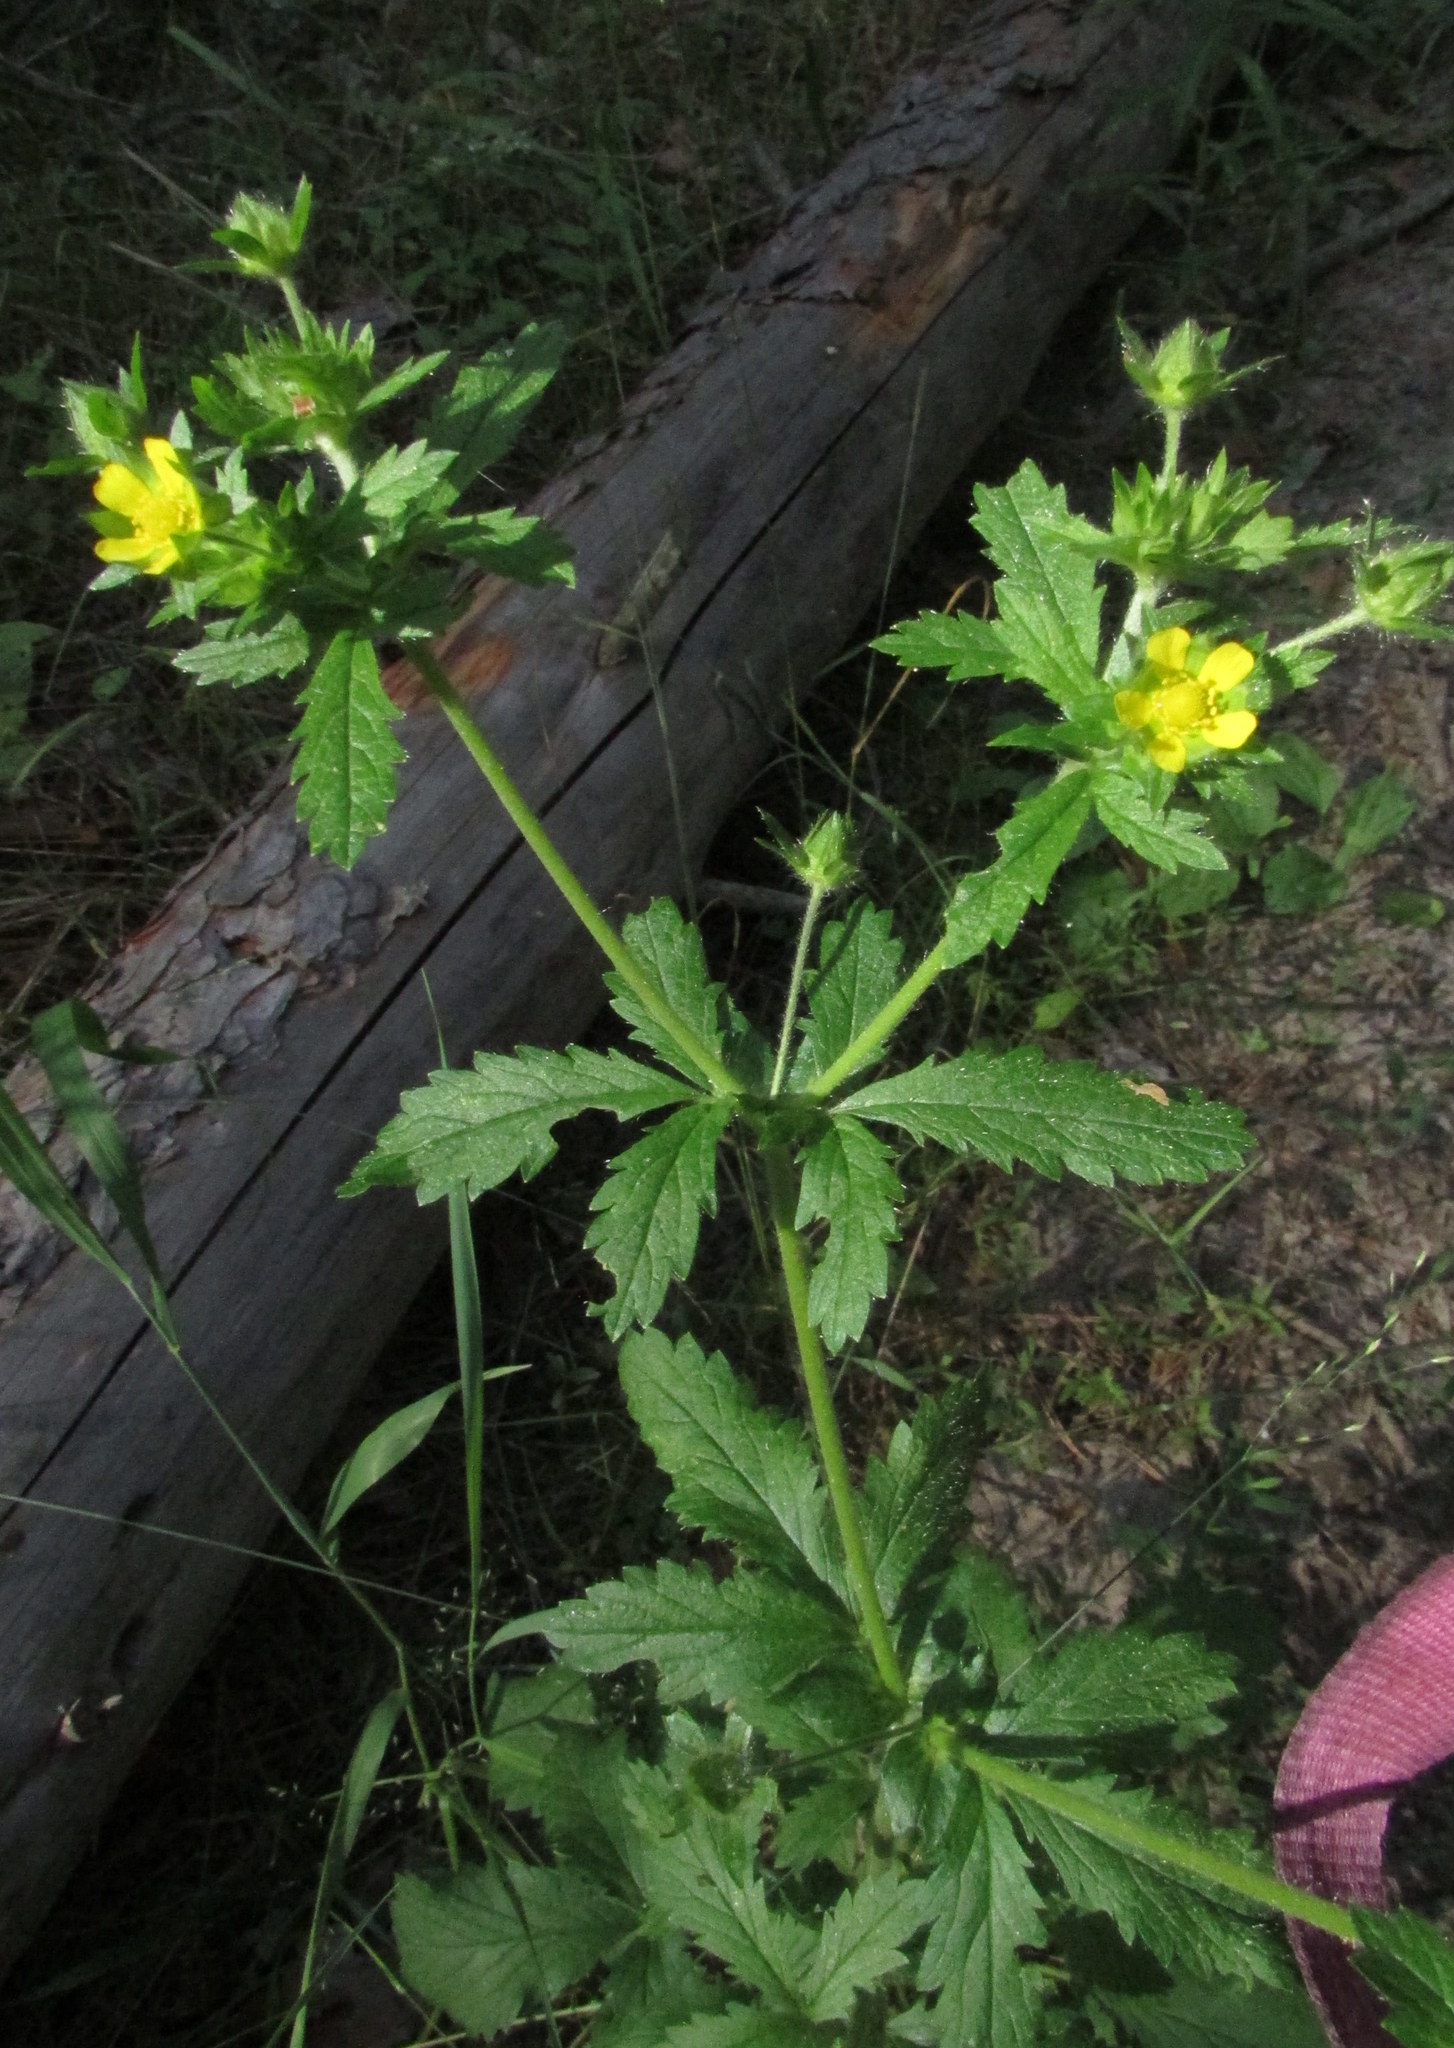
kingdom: Plantae
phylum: Tracheophyta
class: Magnoliopsida
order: Rosales
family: Rosaceae
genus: Potentilla
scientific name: Potentilla norvegica
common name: Ternate-leaved cinquefoil
